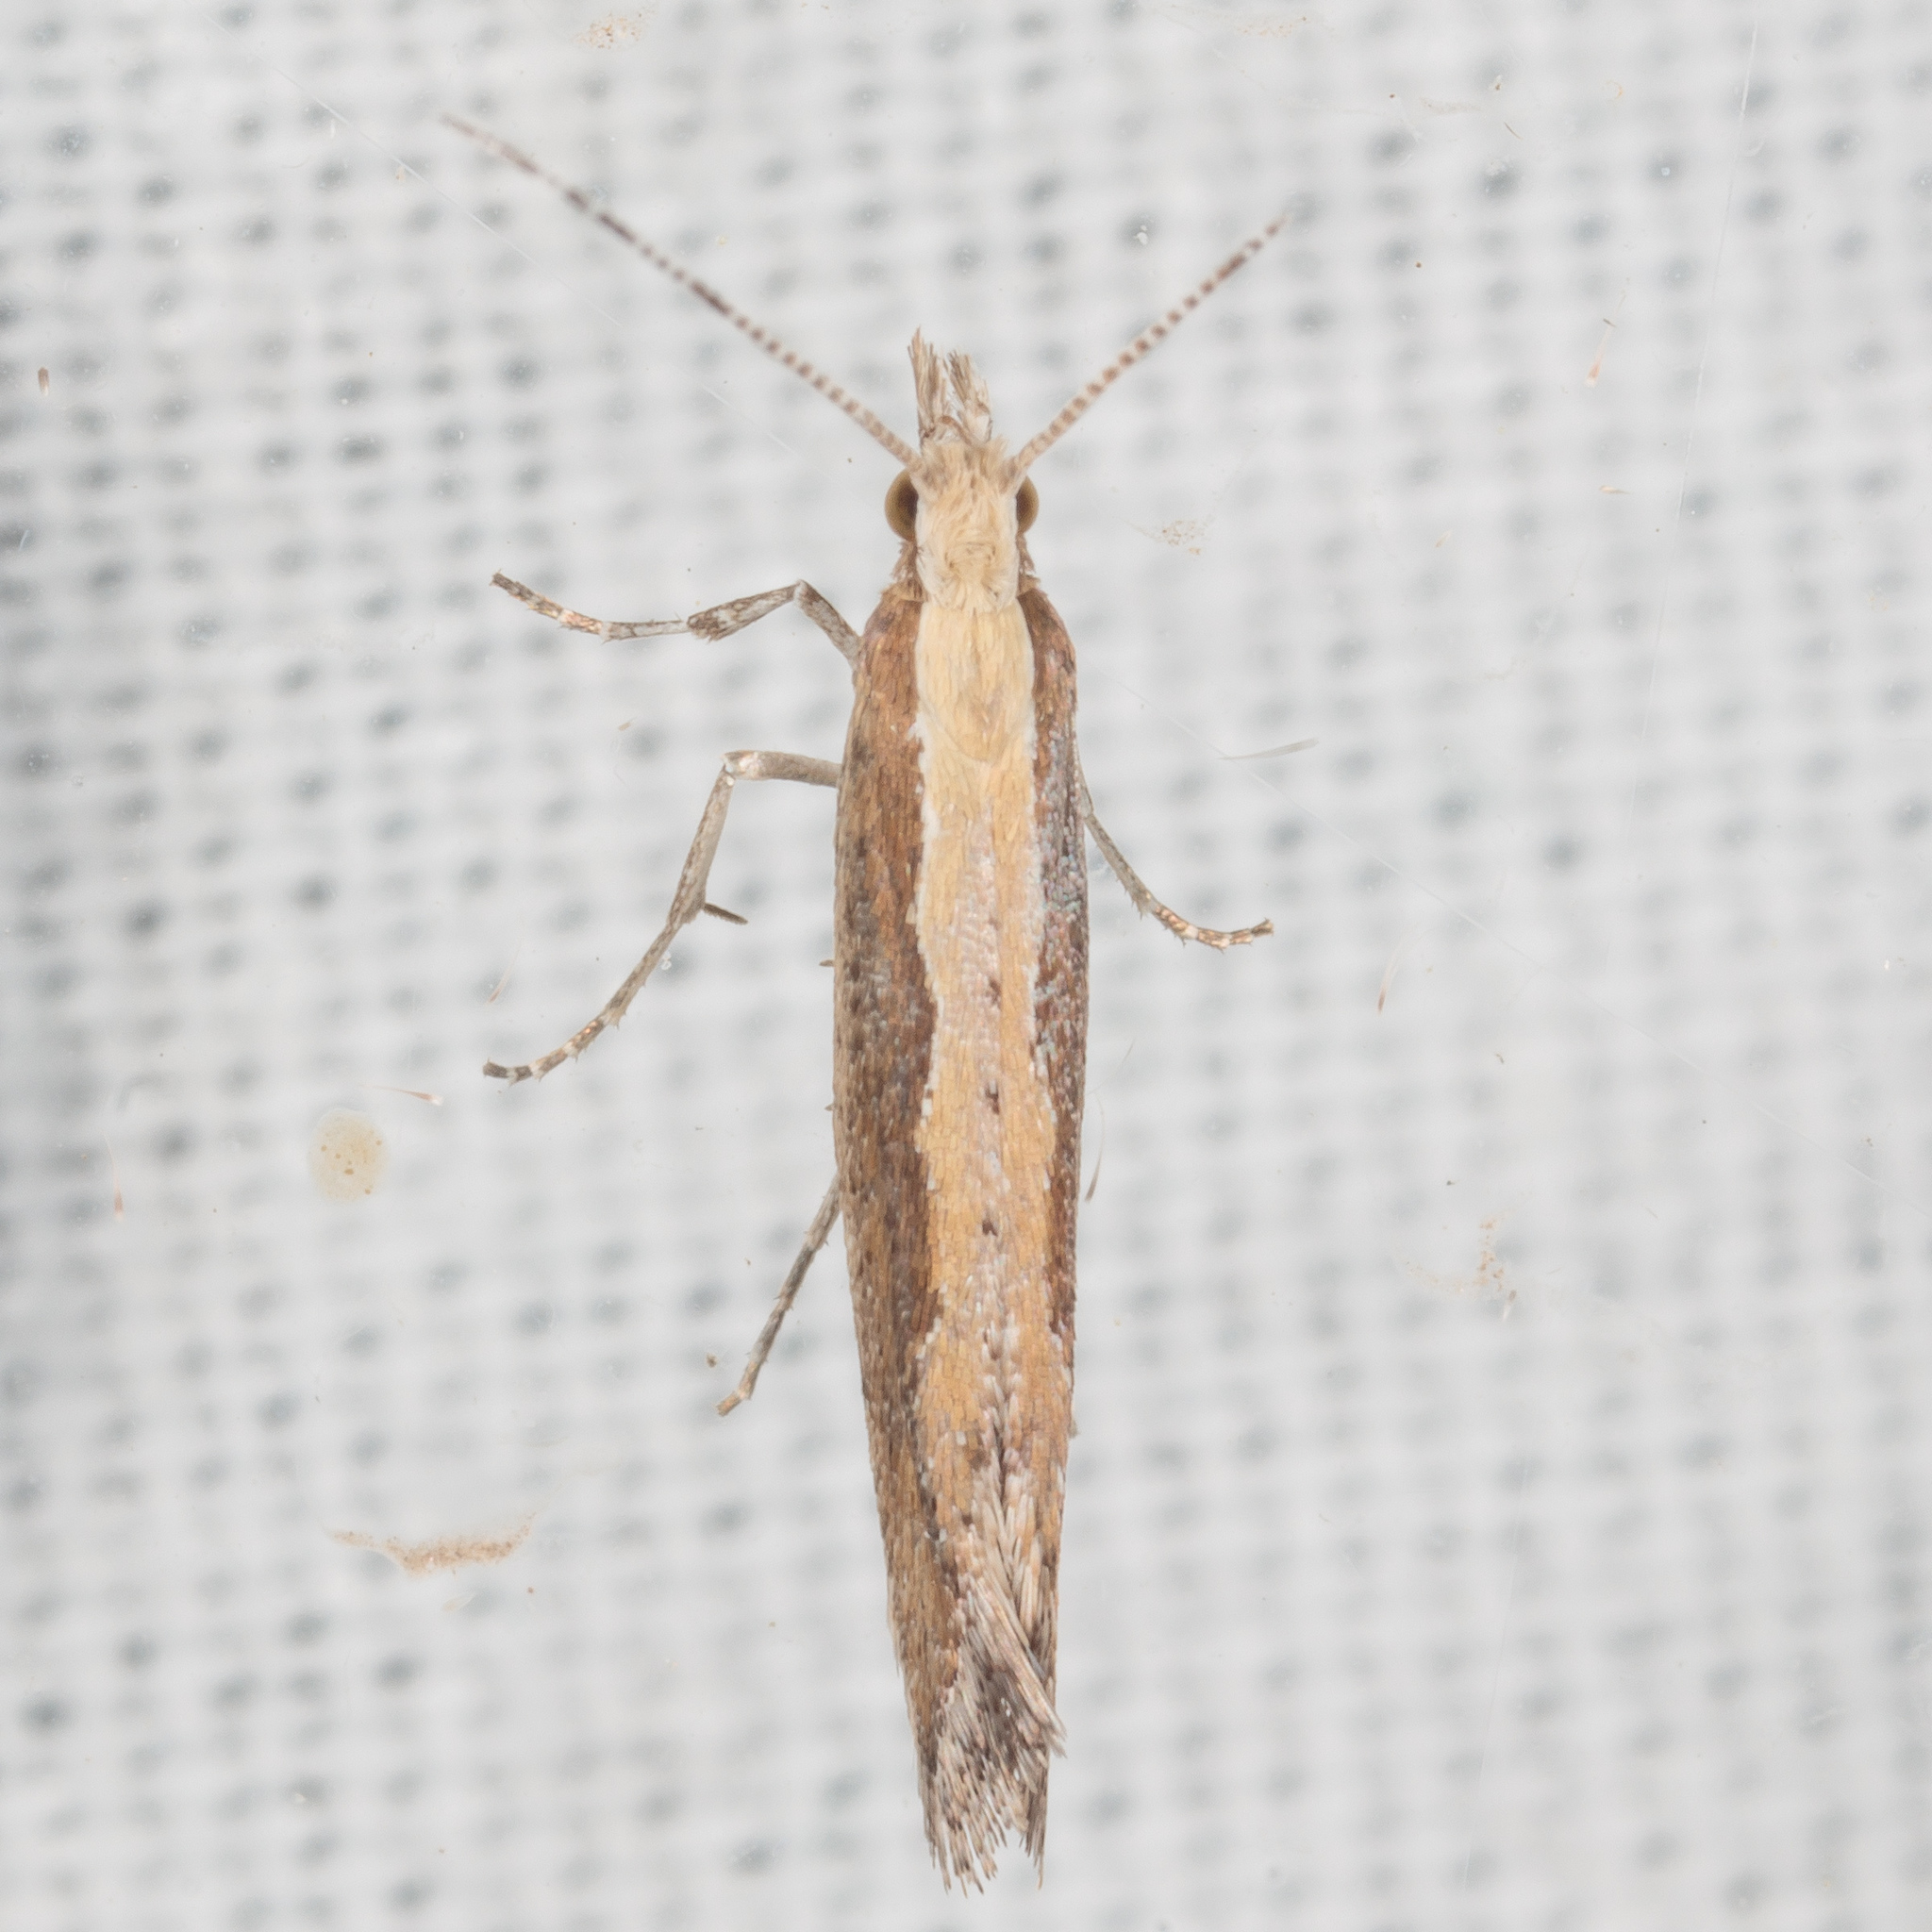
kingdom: Animalia
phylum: Arthropoda
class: Insecta
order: Lepidoptera
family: Plutellidae
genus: Plutella
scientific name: Plutella xylostella
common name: Diamond-back moth
